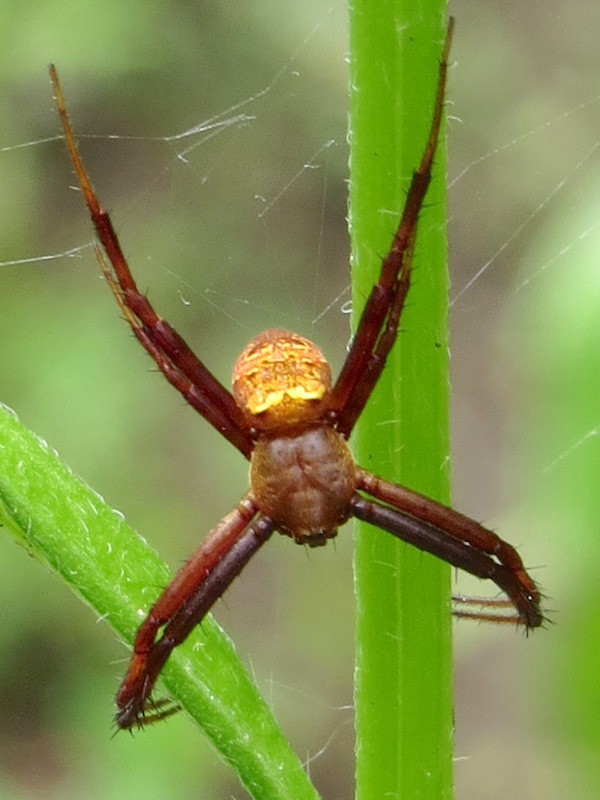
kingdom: Animalia
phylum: Arthropoda
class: Arachnida
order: Araneae
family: Araneidae
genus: Gea
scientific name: Gea heptagon
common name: Orb weavers
